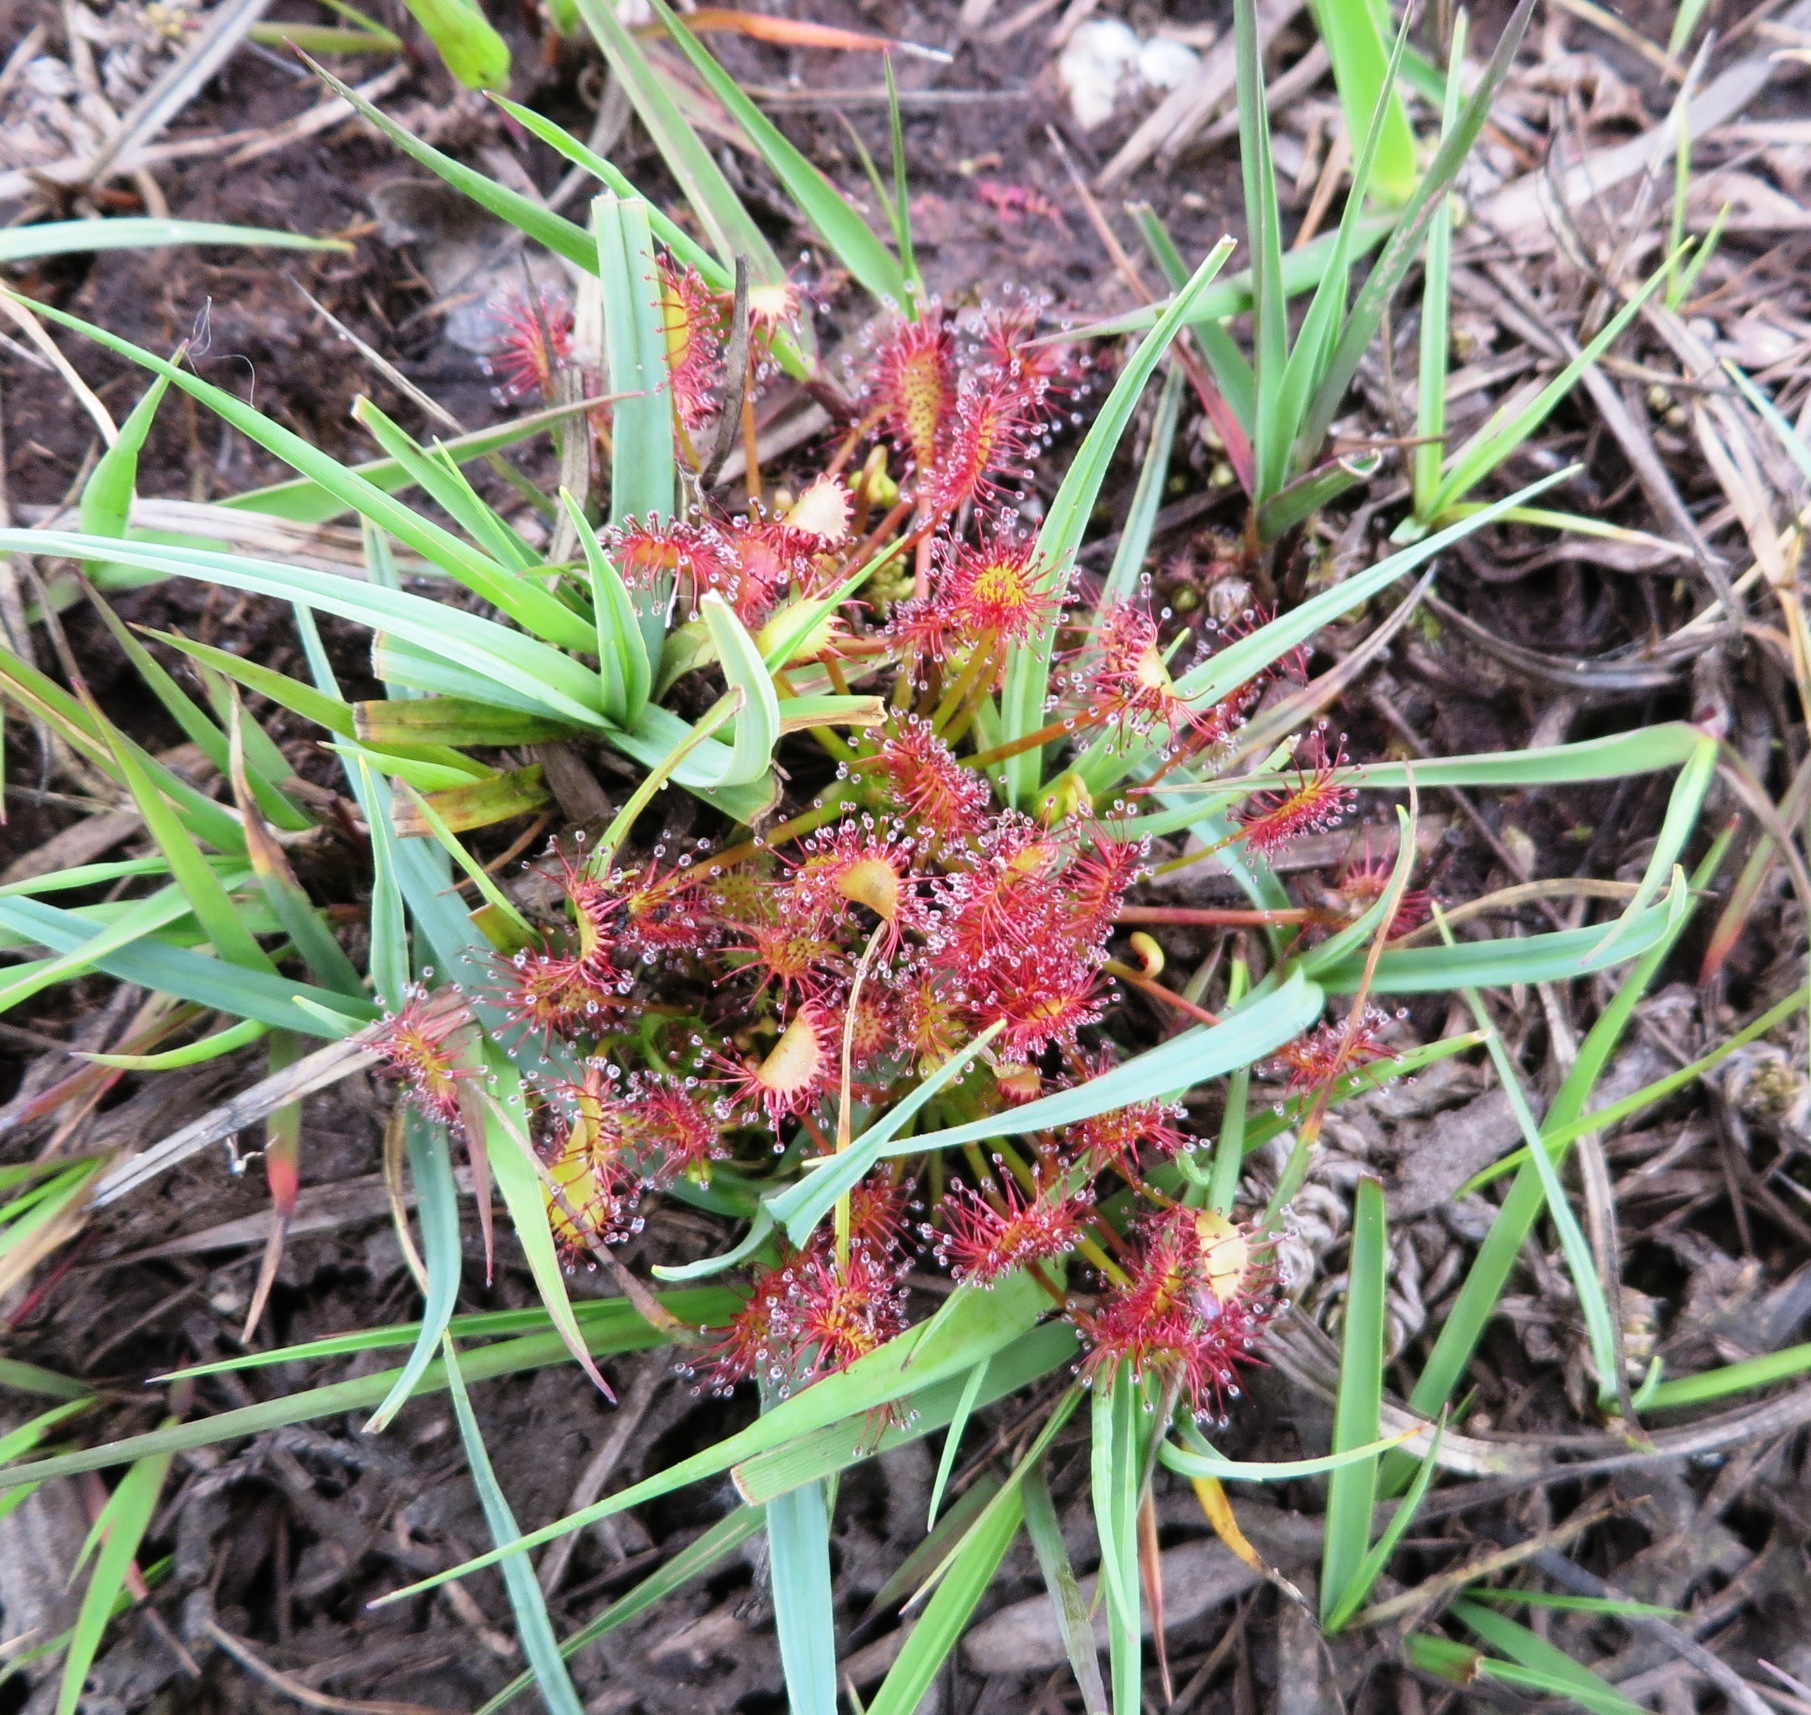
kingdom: Plantae
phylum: Tracheophyta
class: Magnoliopsida
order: Caryophyllales
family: Droseraceae
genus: Drosera
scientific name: Drosera intermedia
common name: Oblong-leaved sundew
